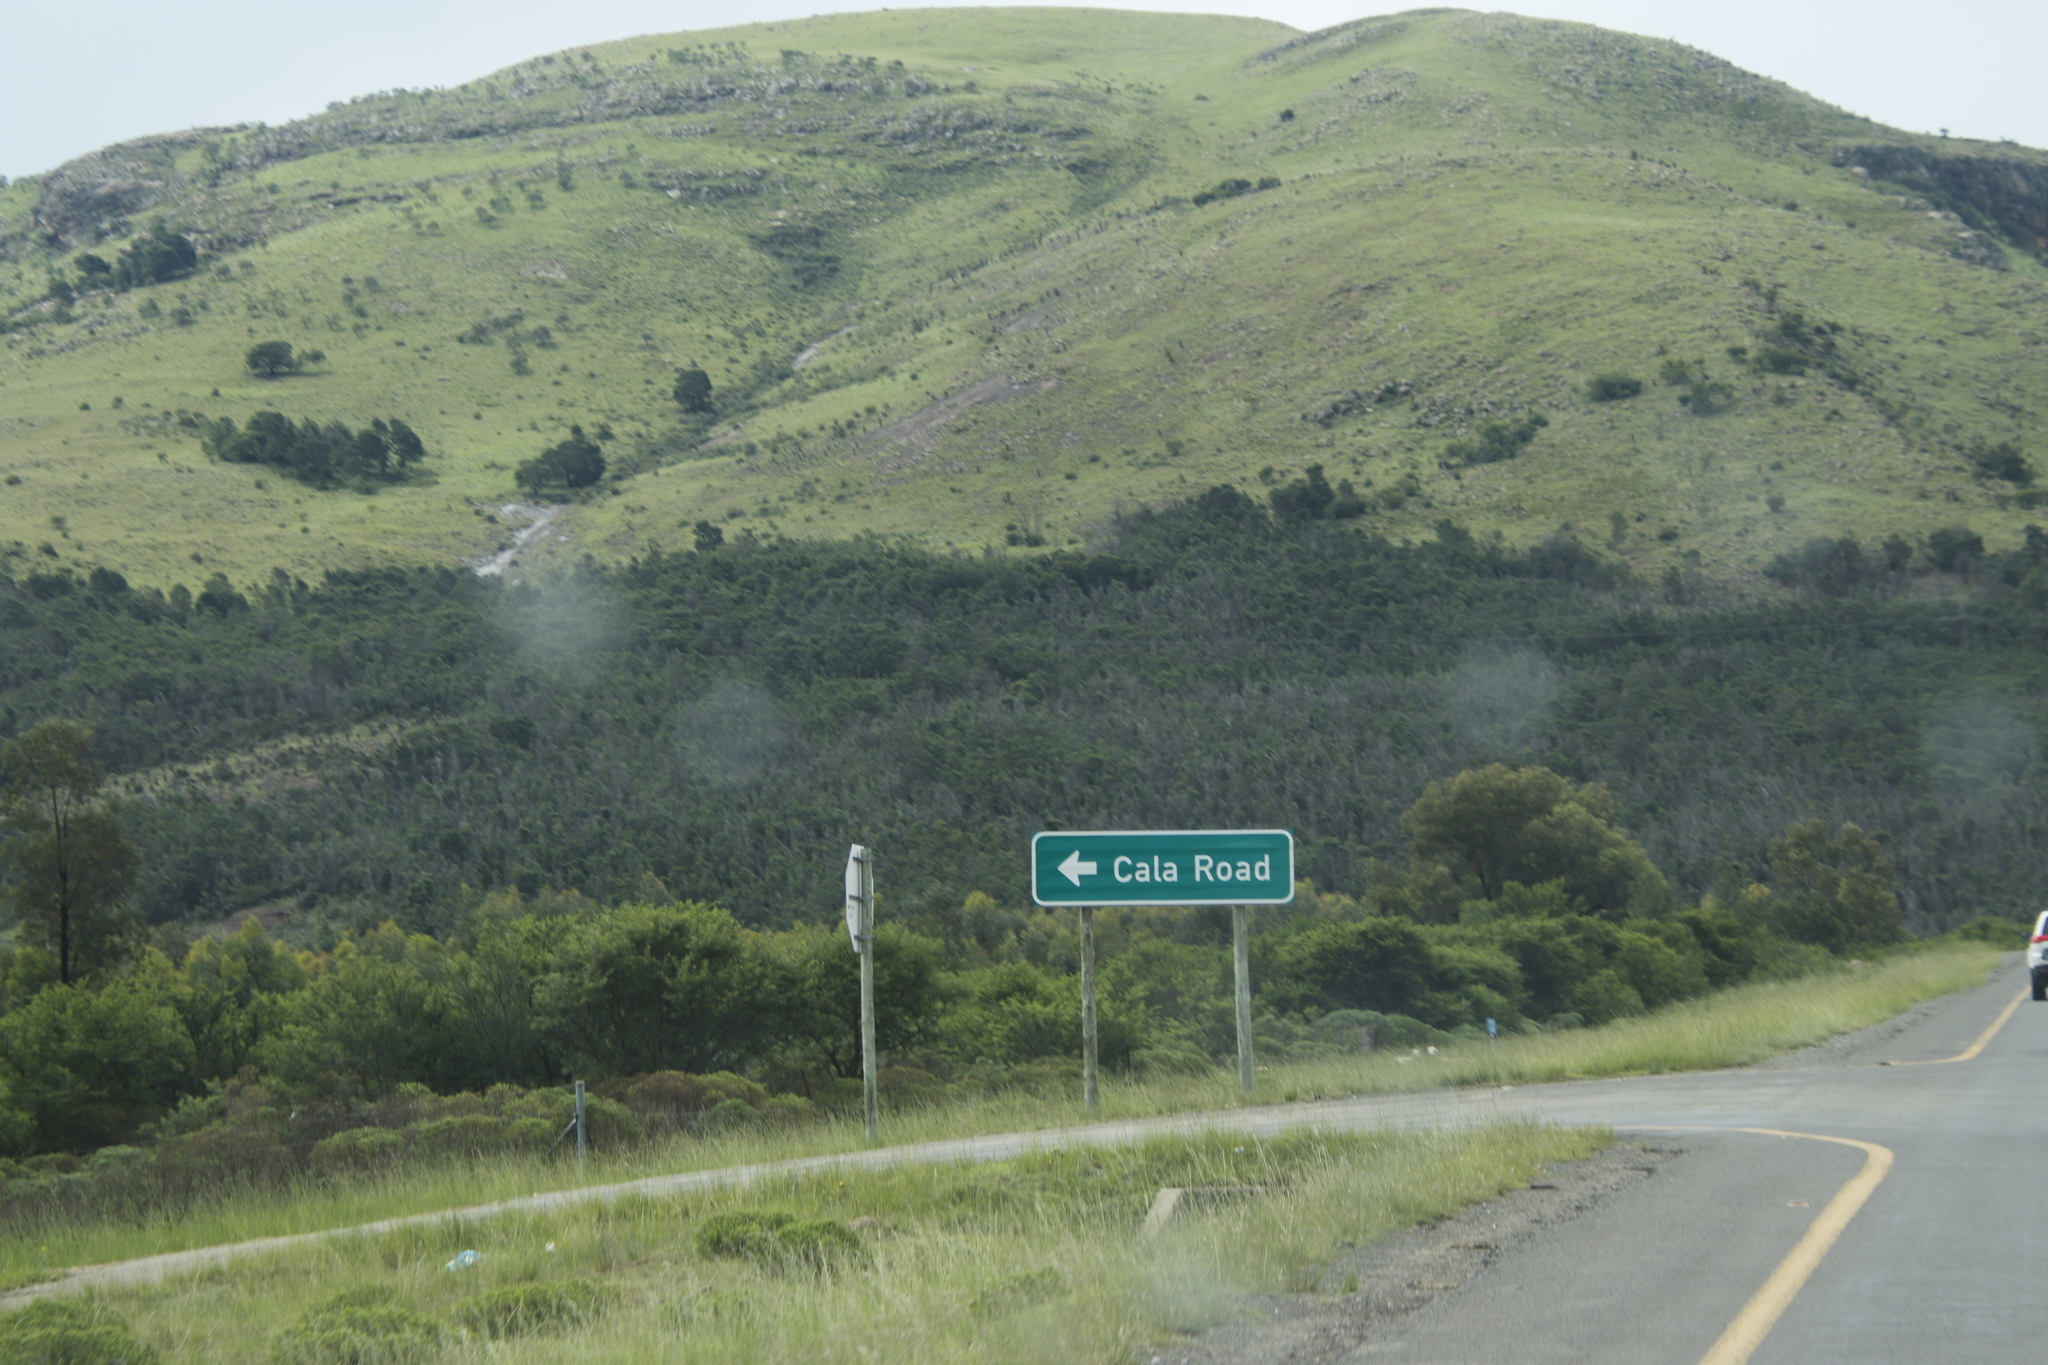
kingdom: Plantae
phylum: Tracheophyta
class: Magnoliopsida
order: Fabales
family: Fabaceae
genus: Acacia
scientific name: Acacia mearnsii
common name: Black wattle
